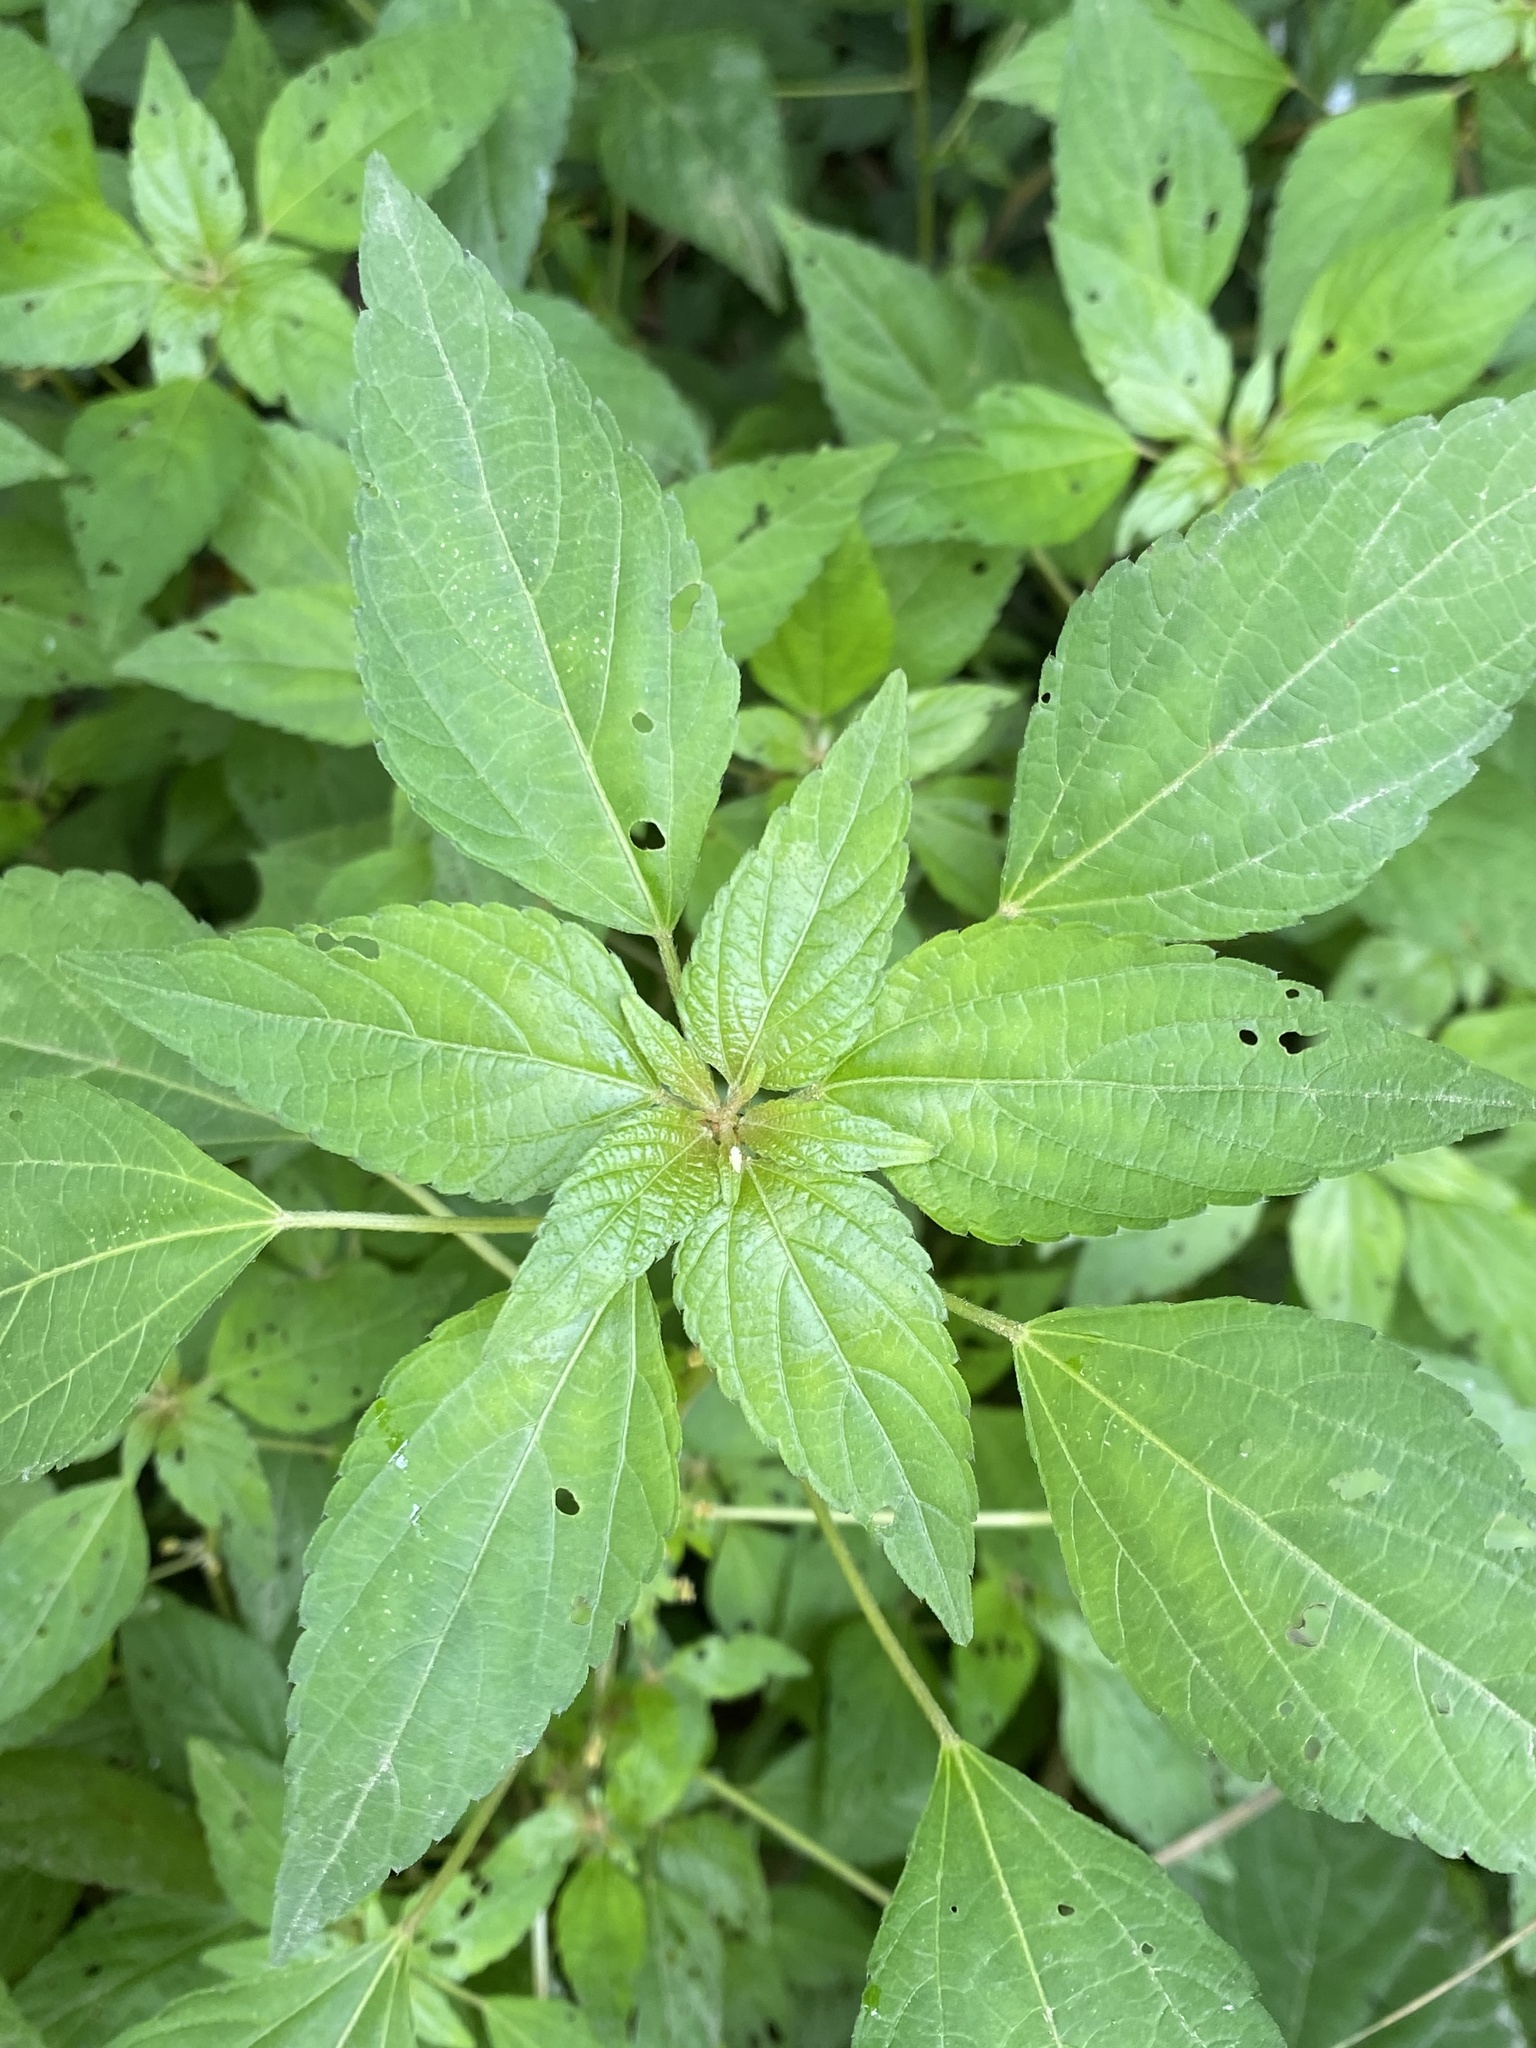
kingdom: Plantae
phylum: Tracheophyta
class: Magnoliopsida
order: Malpighiales
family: Euphorbiaceae
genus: Acalypha
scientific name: Acalypha rhomboidea
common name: Rhombic copperleaf
